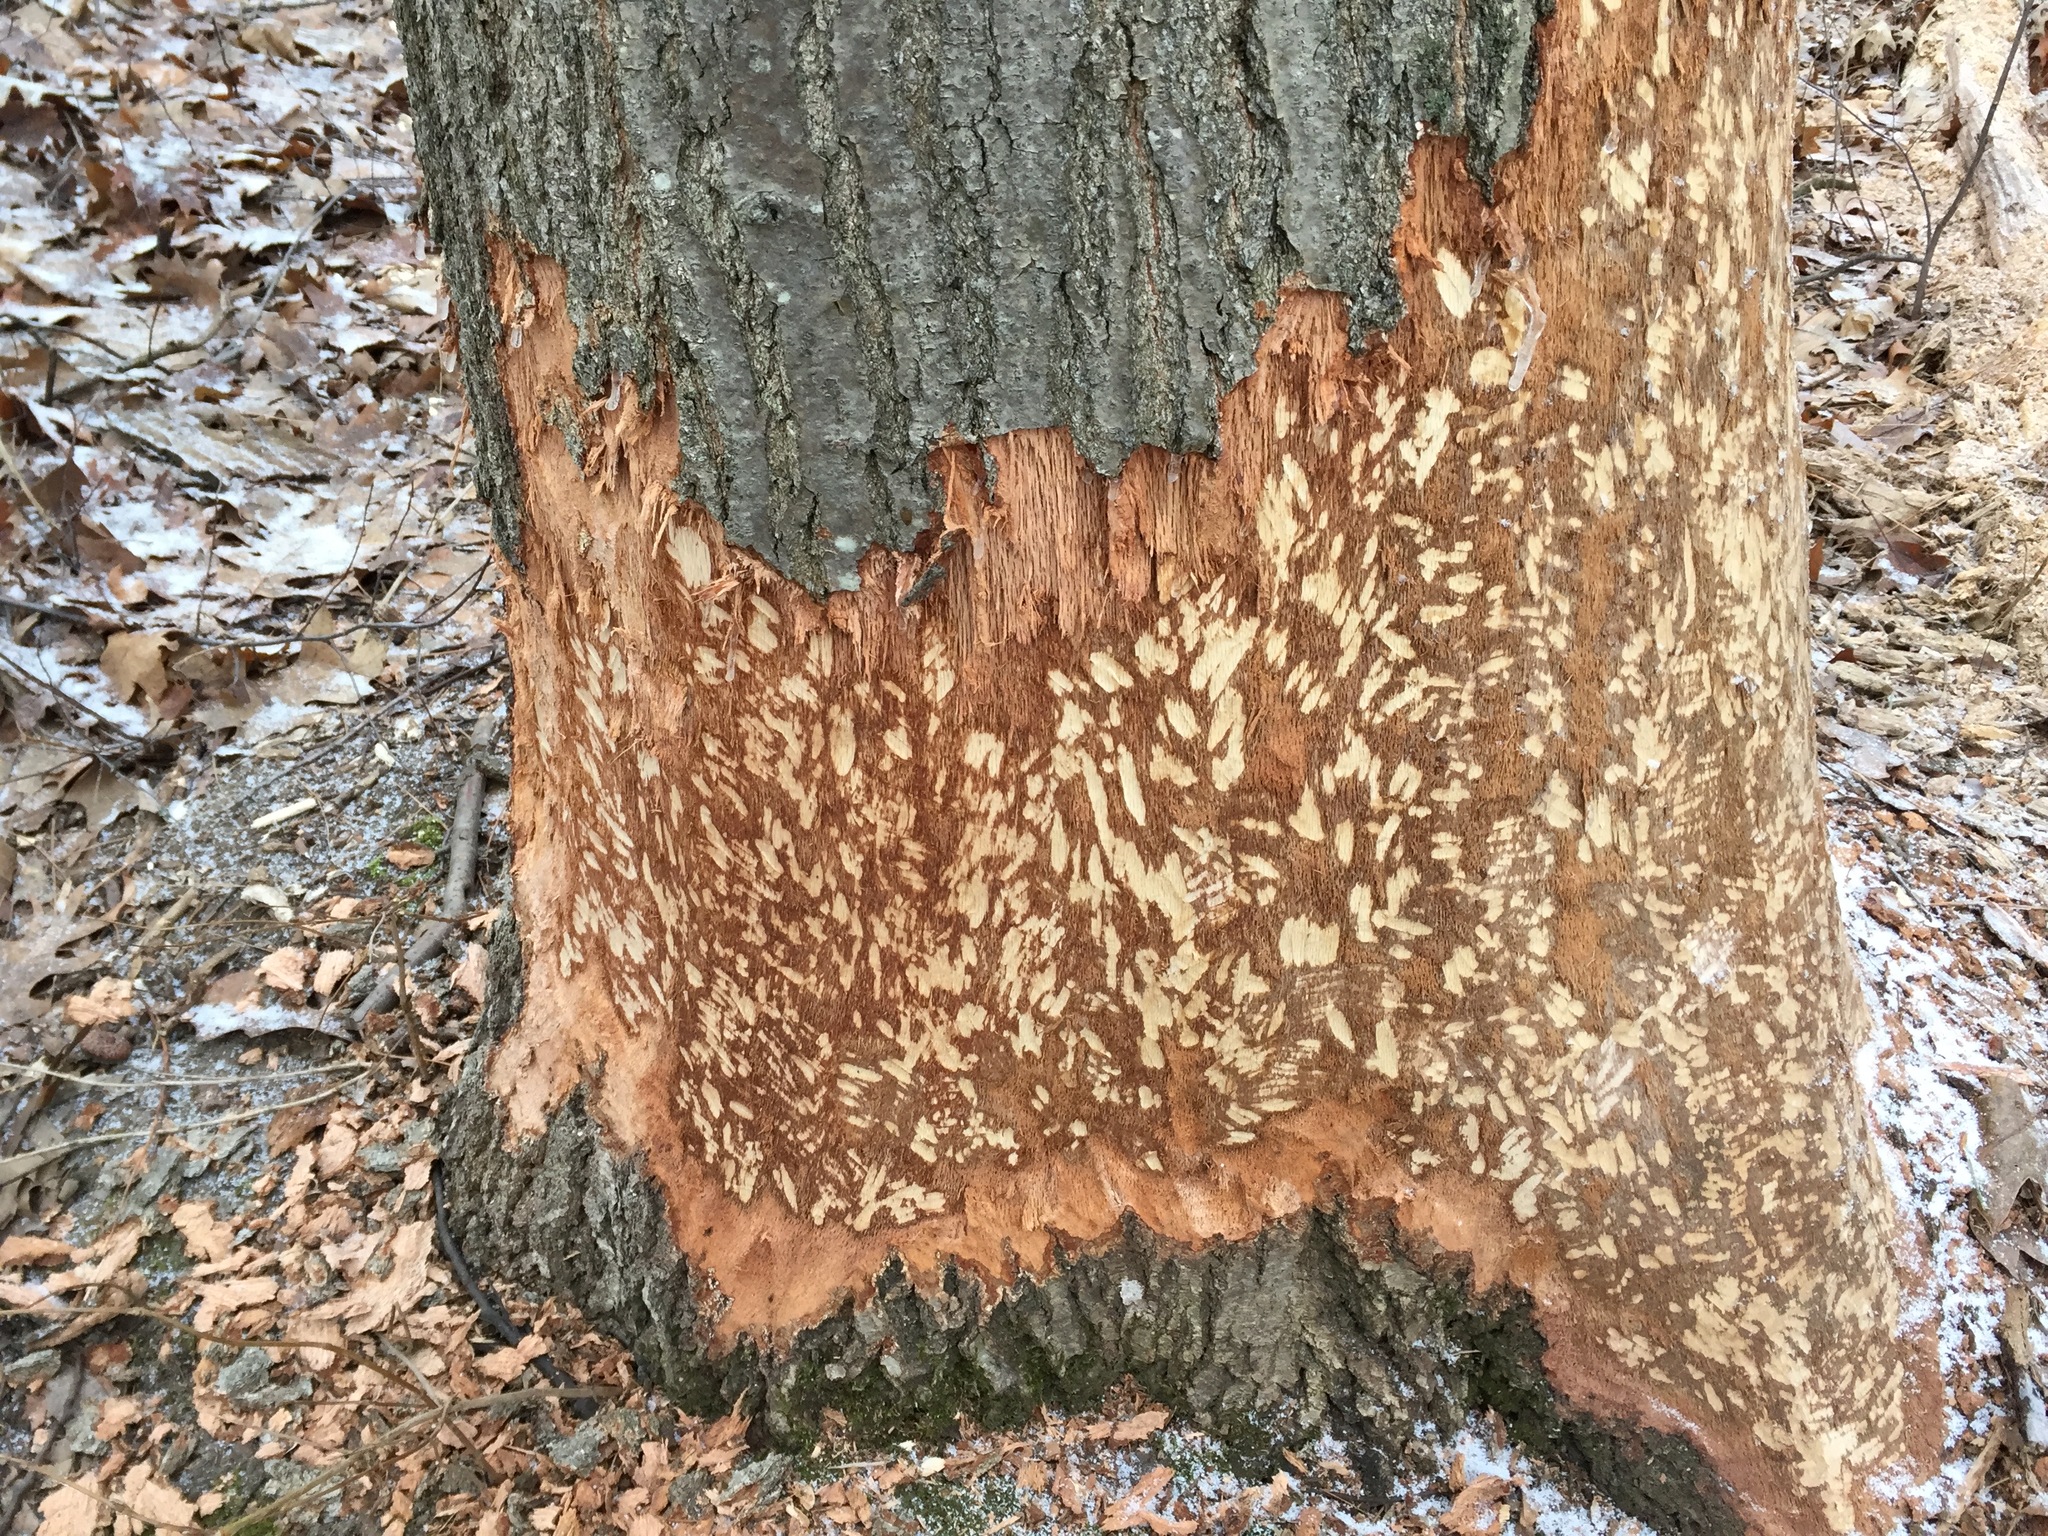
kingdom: Animalia
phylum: Chordata
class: Mammalia
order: Rodentia
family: Castoridae
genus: Castor
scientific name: Castor canadensis
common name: American beaver
